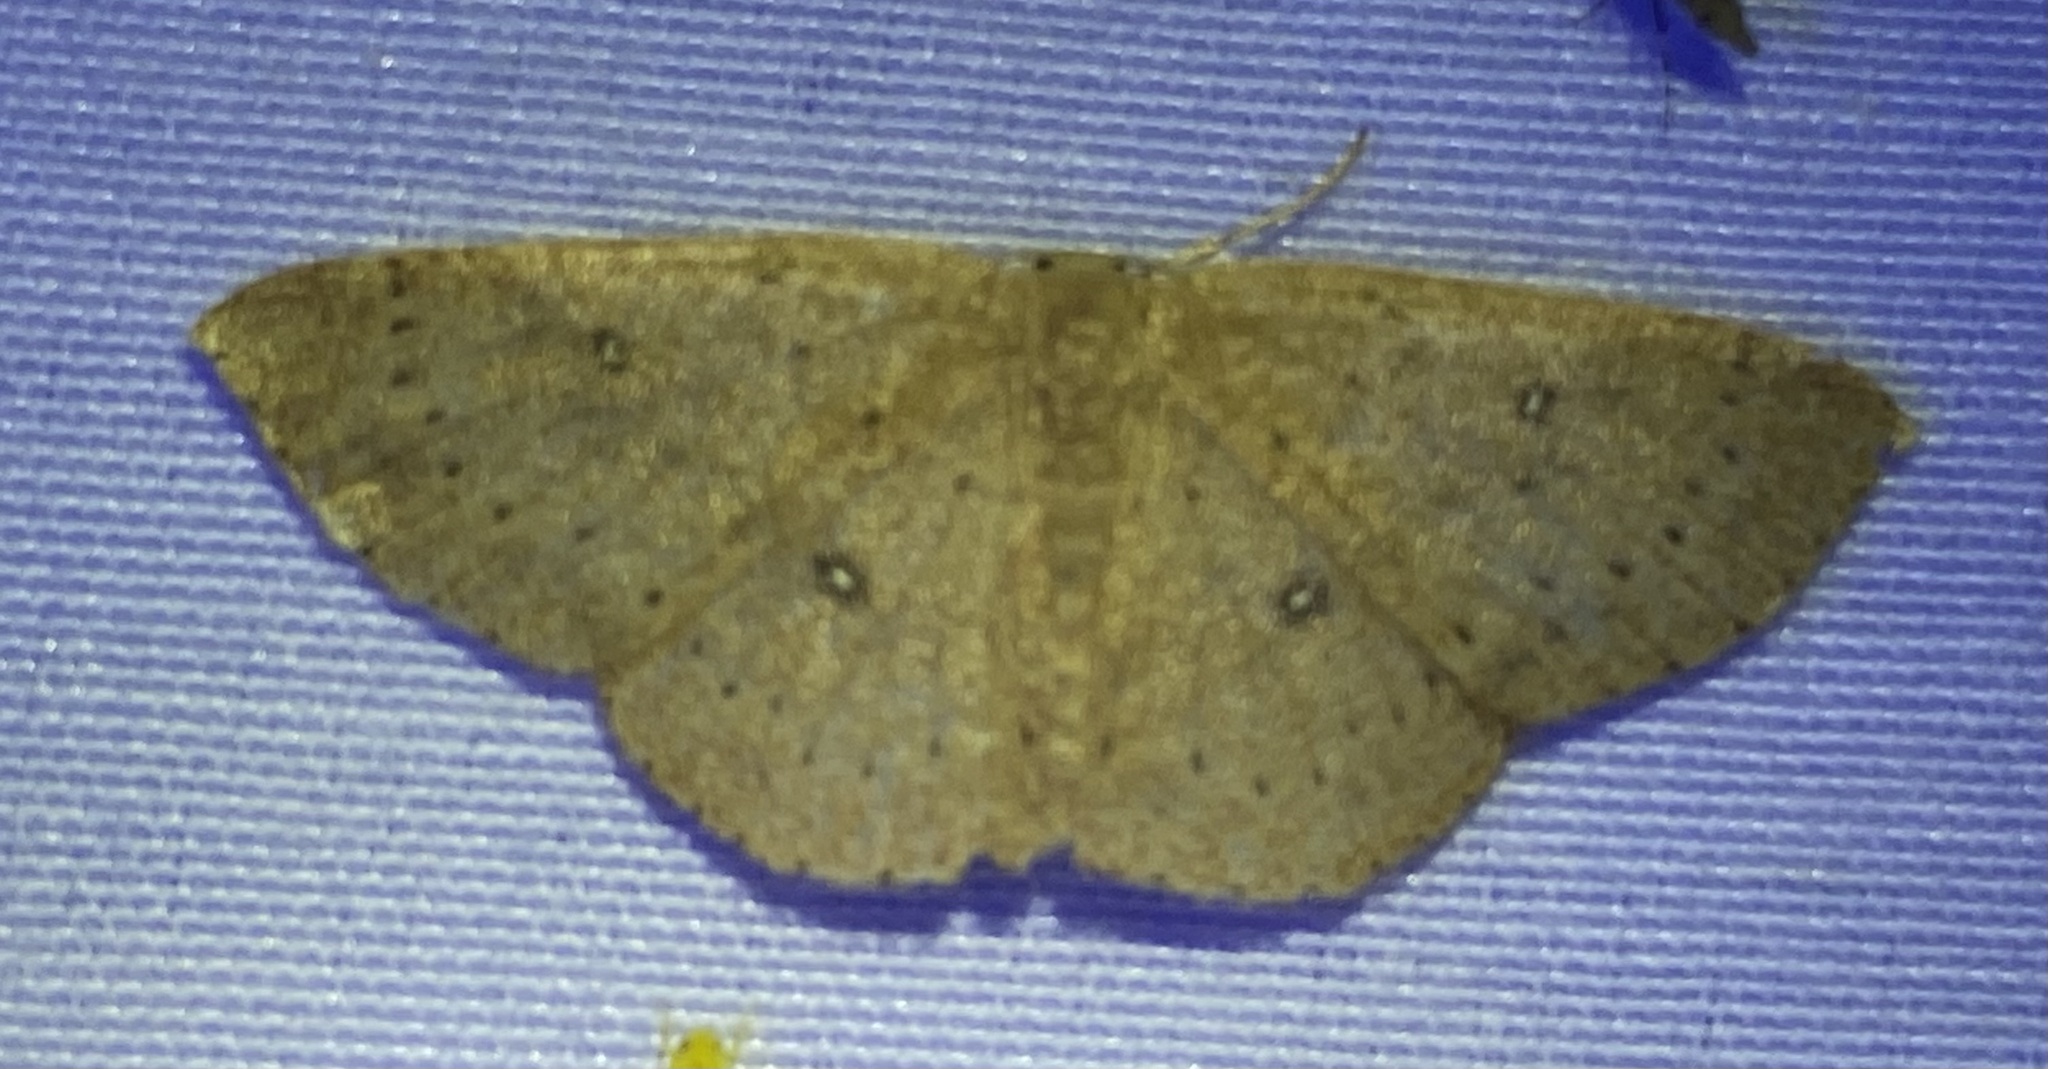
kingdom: Animalia
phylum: Arthropoda
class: Insecta
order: Lepidoptera
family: Geometridae
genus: Cyclophora
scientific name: Cyclophora packardi
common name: Packard's wave
